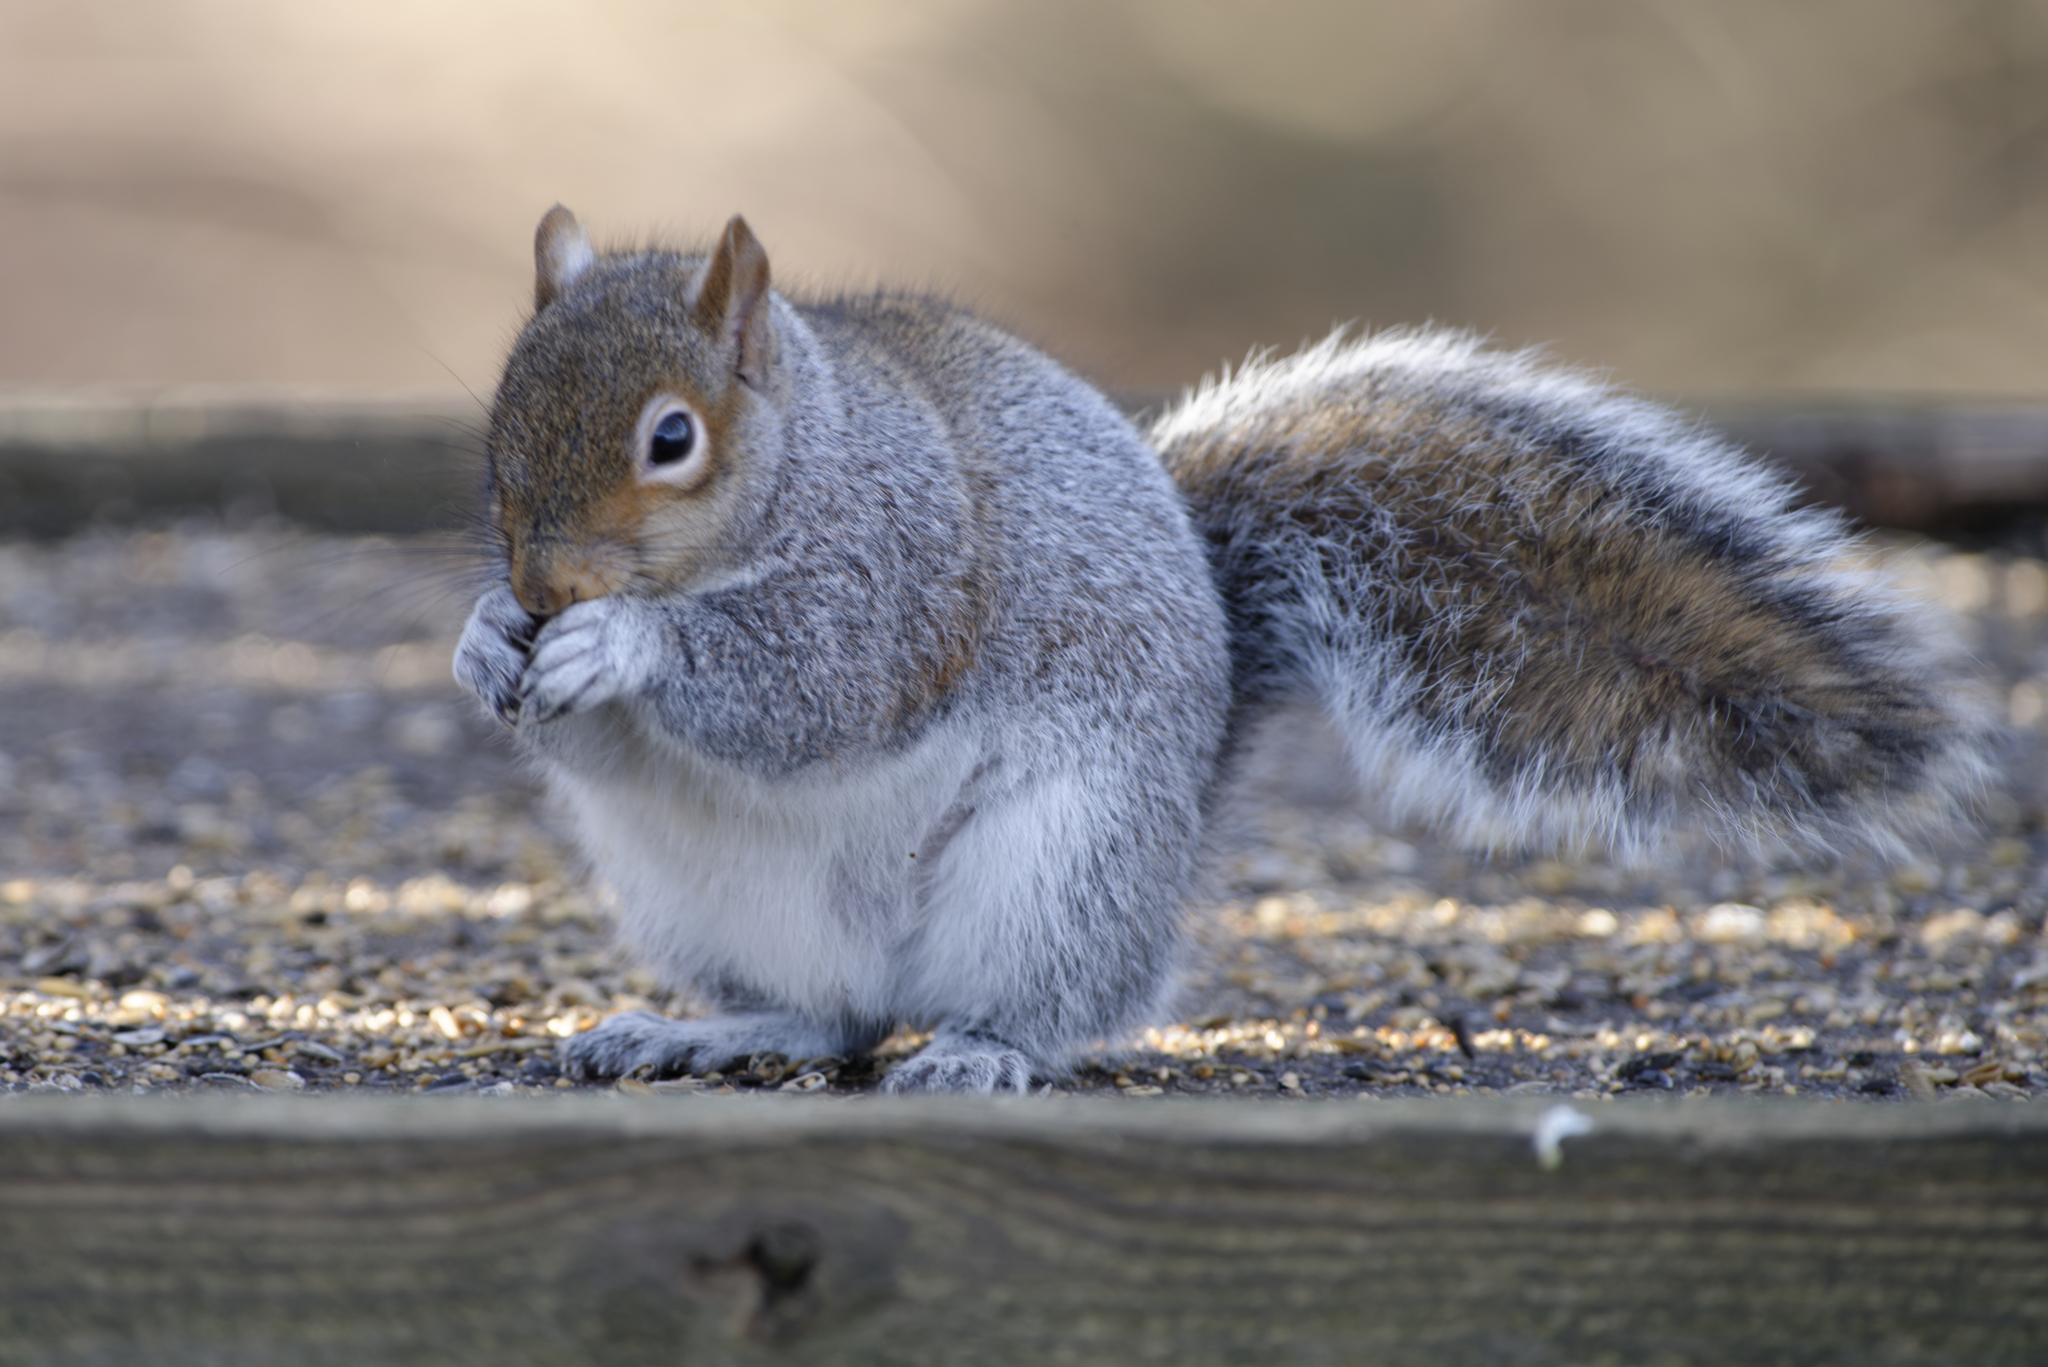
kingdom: Animalia
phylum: Chordata
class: Mammalia
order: Rodentia
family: Sciuridae
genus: Sciurus
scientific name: Sciurus carolinensis
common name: Eastern gray squirrel
